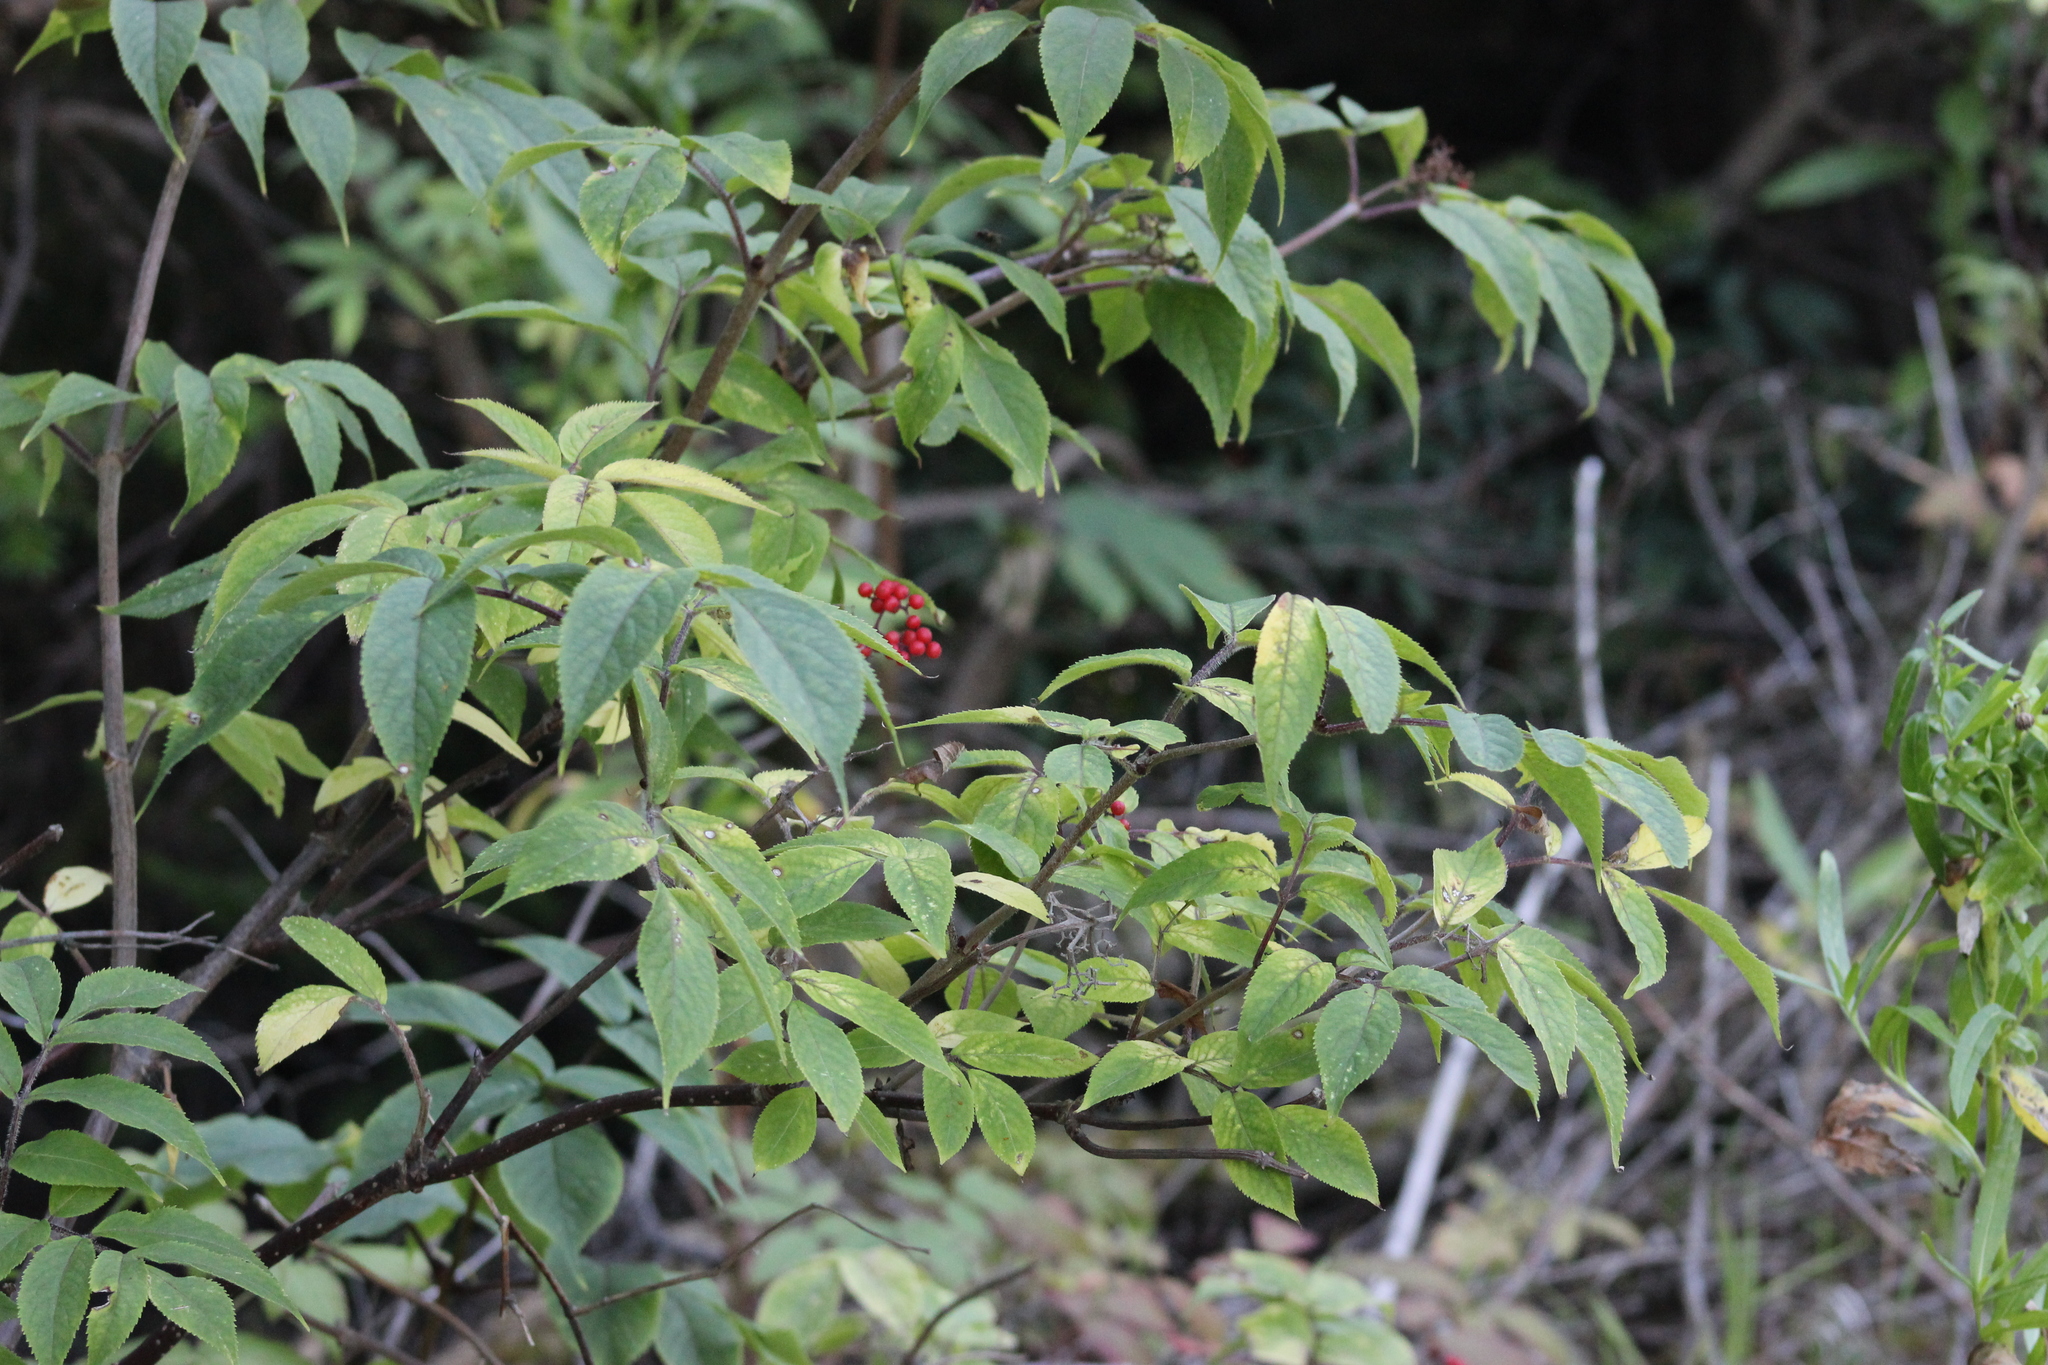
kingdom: Plantae
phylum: Tracheophyta
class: Magnoliopsida
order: Dipsacales
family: Viburnaceae
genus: Sambucus
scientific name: Sambucus sibirica
